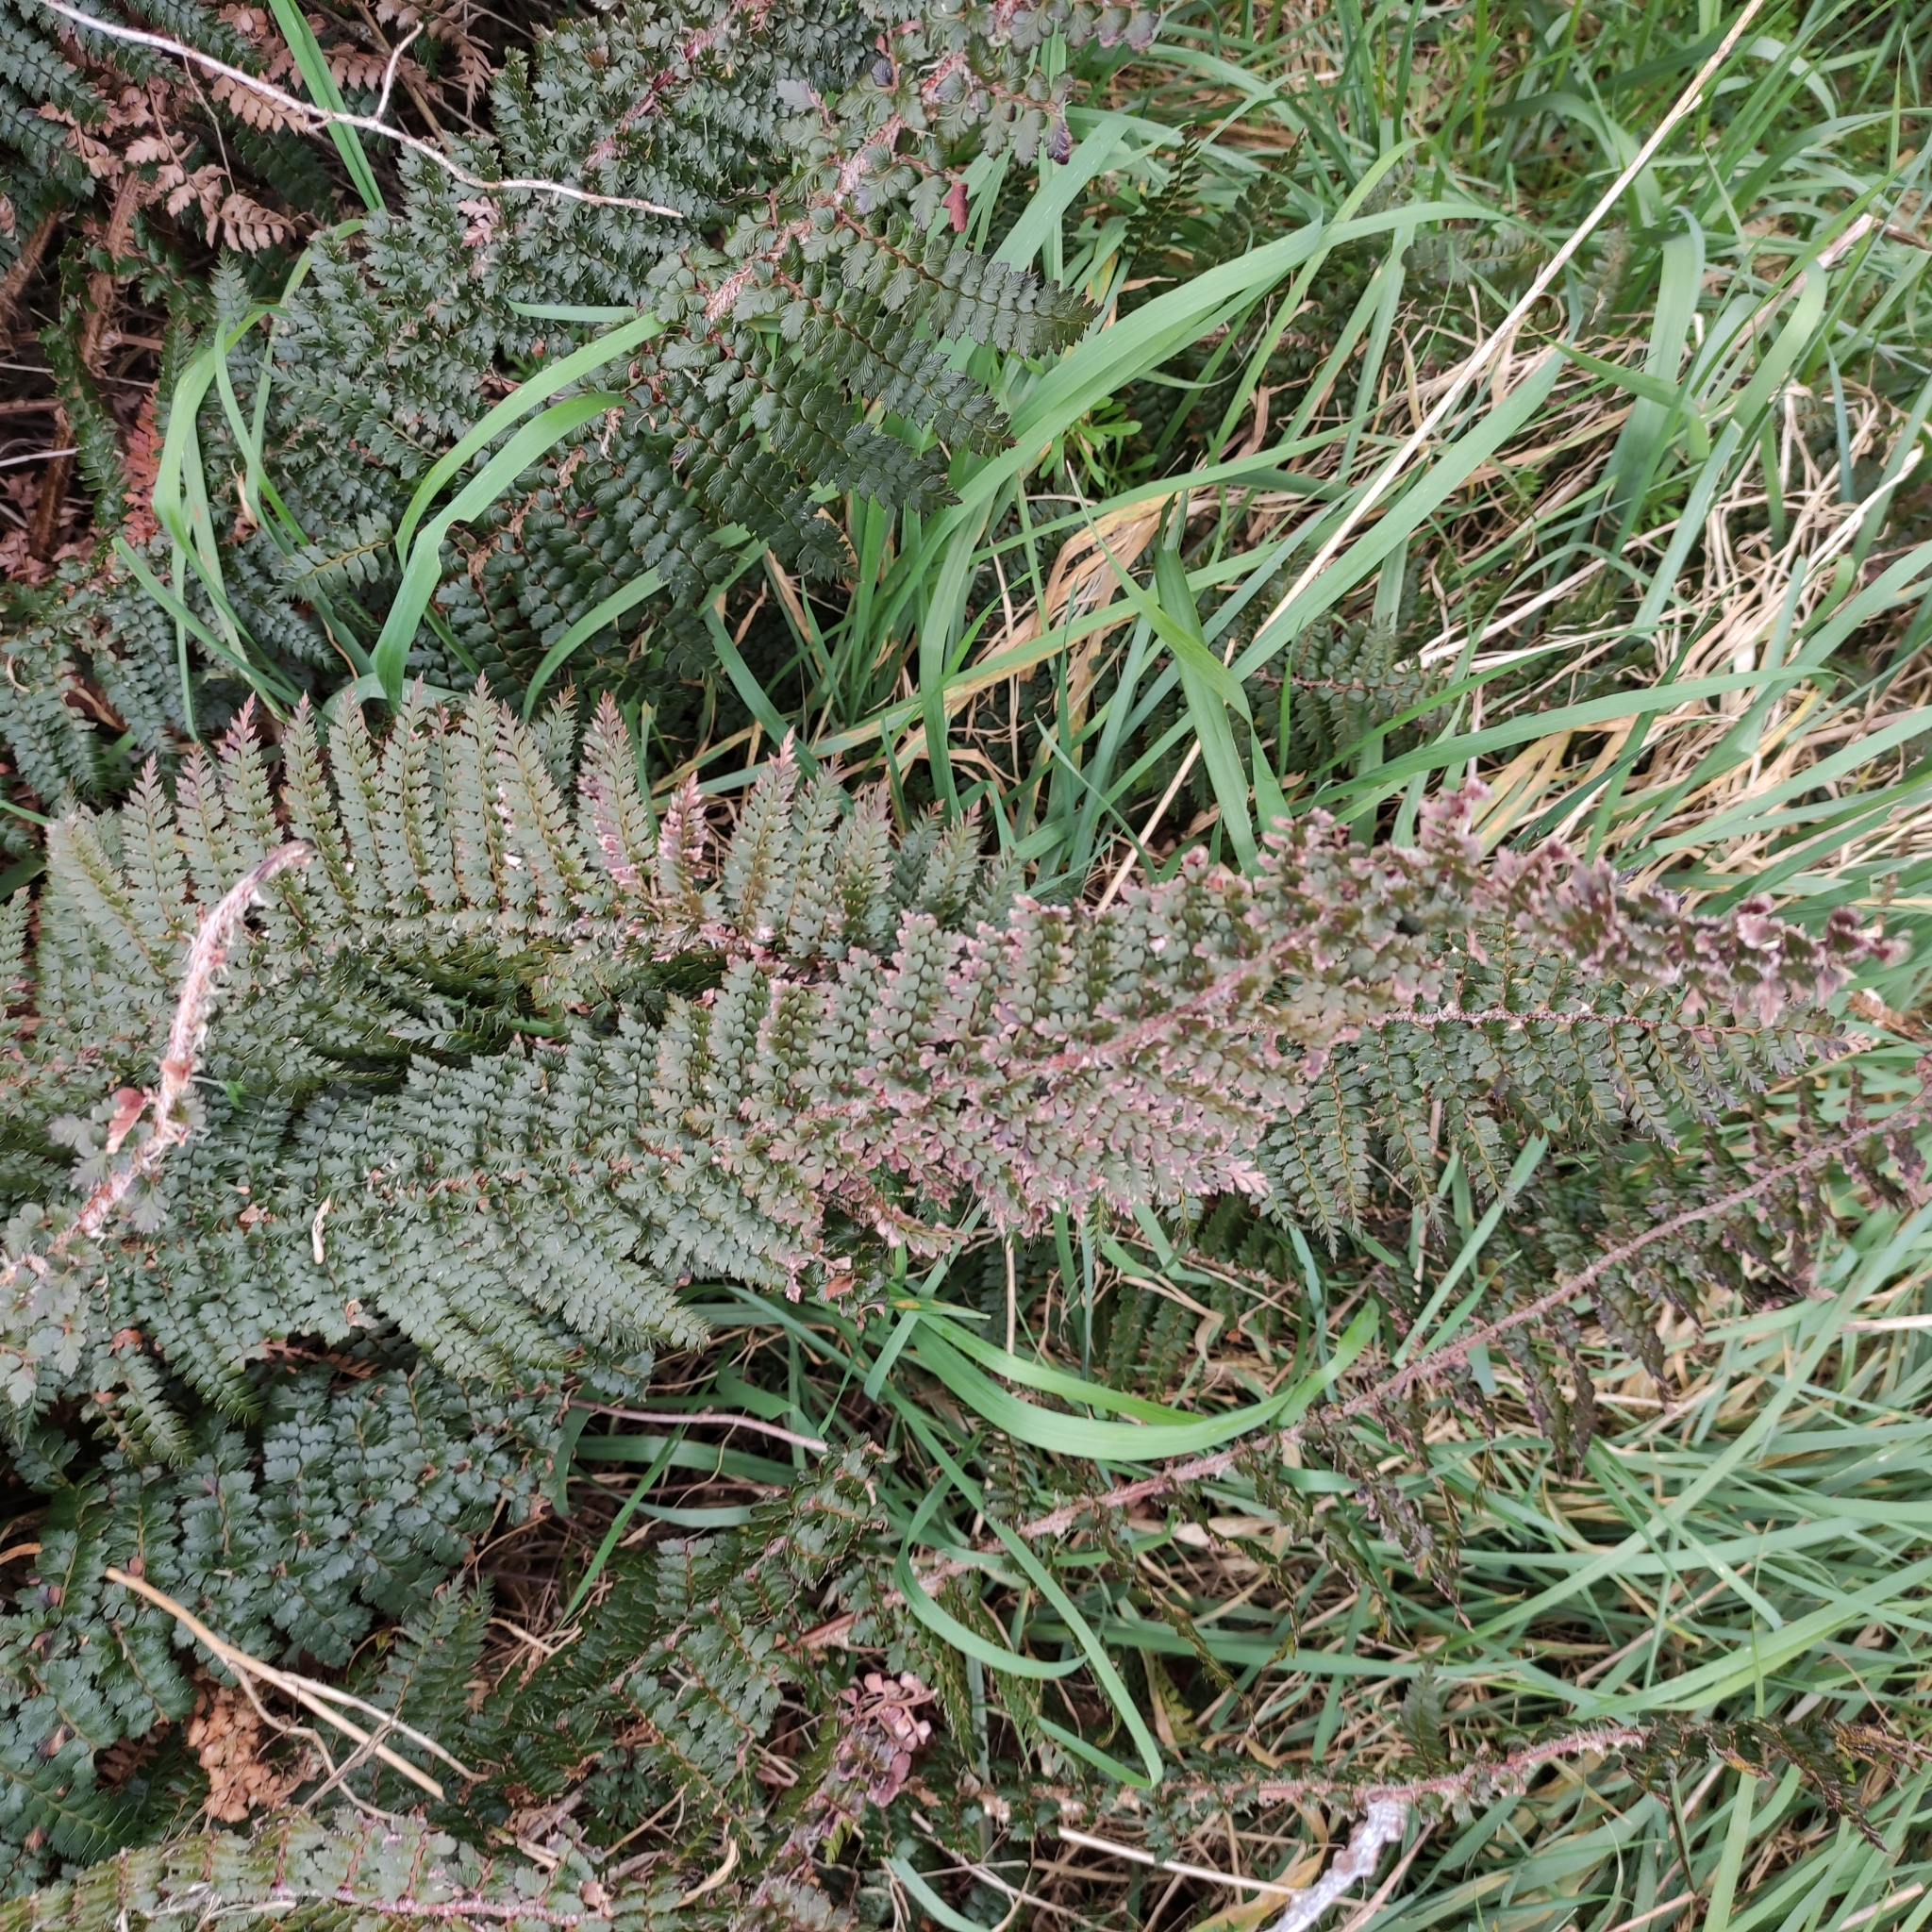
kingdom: Plantae
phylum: Tracheophyta
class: Polypodiopsida
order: Polypodiales
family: Dryopteridaceae
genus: Polystichum
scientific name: Polystichum vestitum
